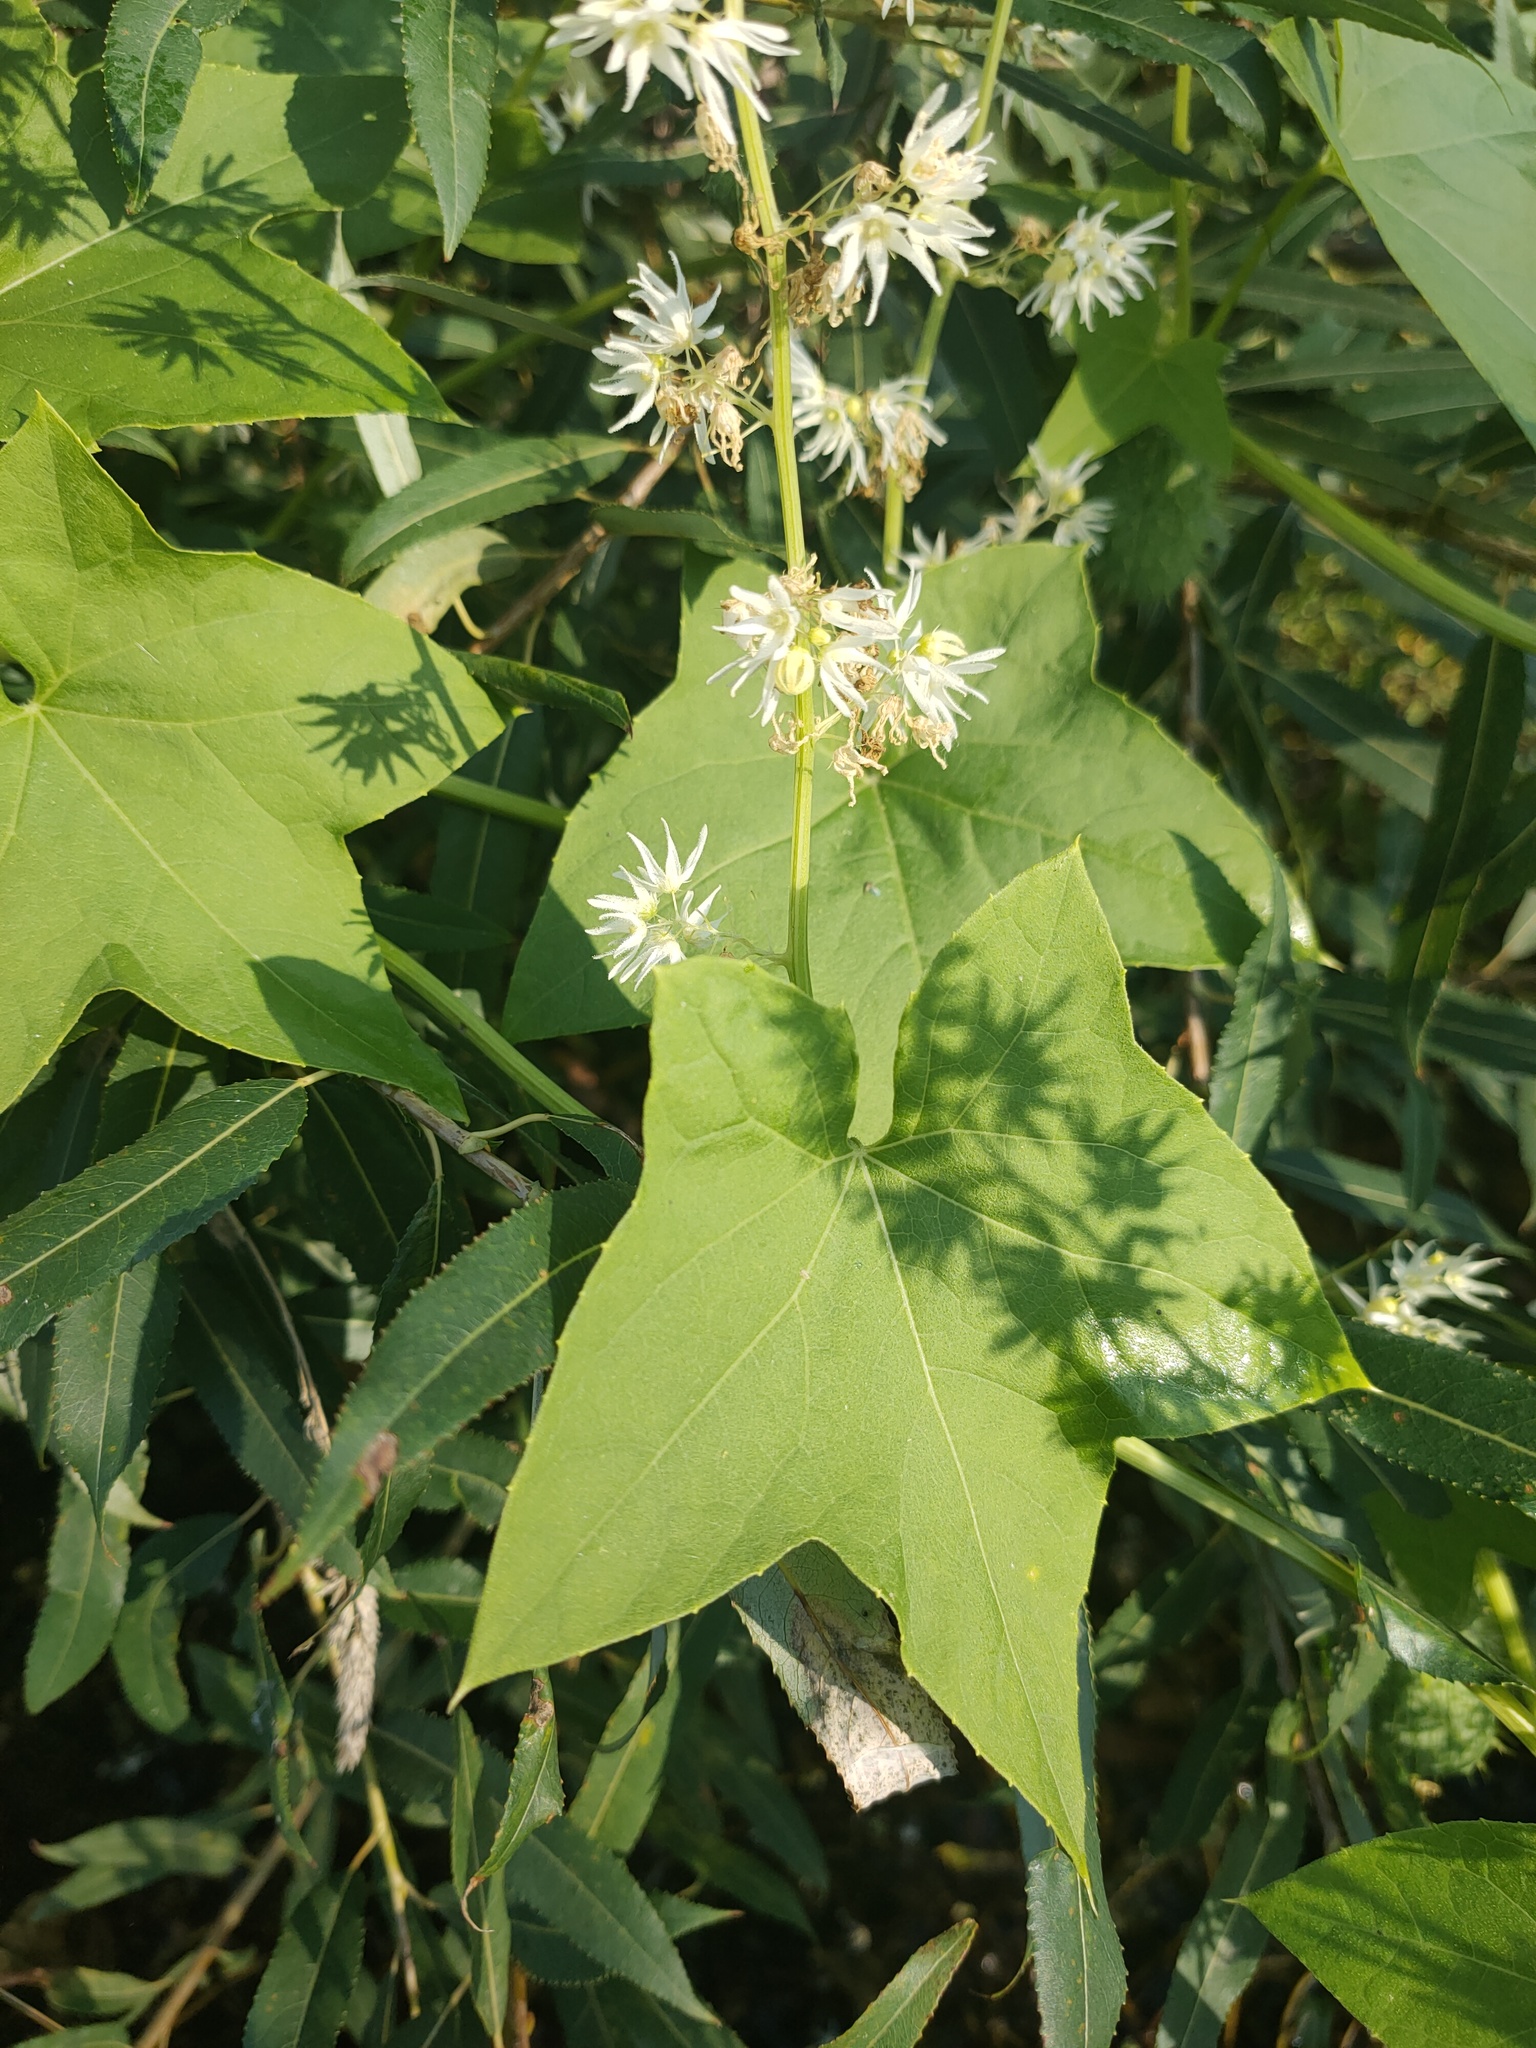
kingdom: Plantae
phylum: Tracheophyta
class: Magnoliopsida
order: Cucurbitales
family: Cucurbitaceae
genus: Echinocystis
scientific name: Echinocystis lobata
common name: Wild cucumber
